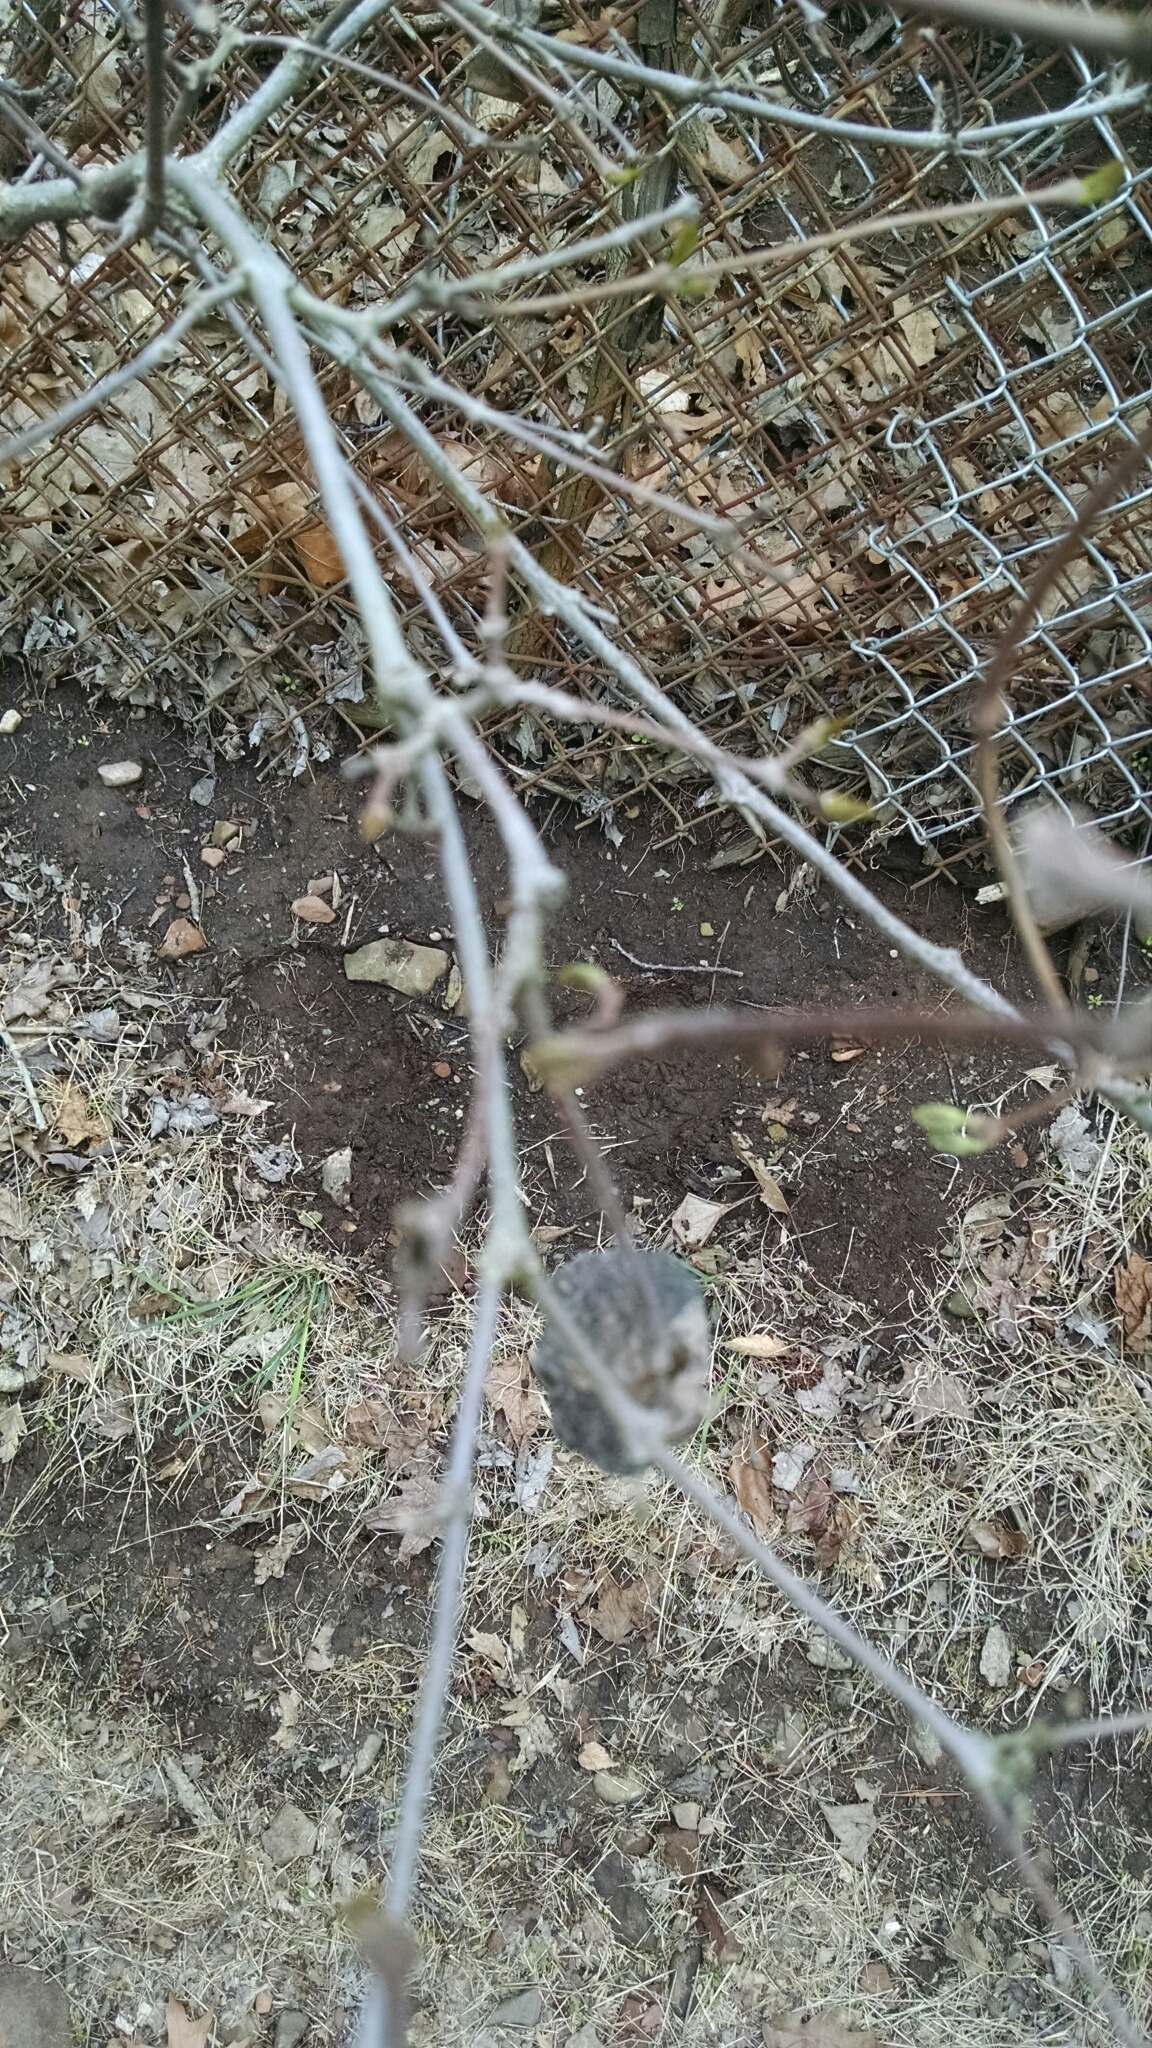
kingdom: Plantae
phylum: Tracheophyta
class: Magnoliopsida
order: Laurales
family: Calycanthaceae
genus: Calycanthus
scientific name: Calycanthus floridus
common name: Carolina-allspice
